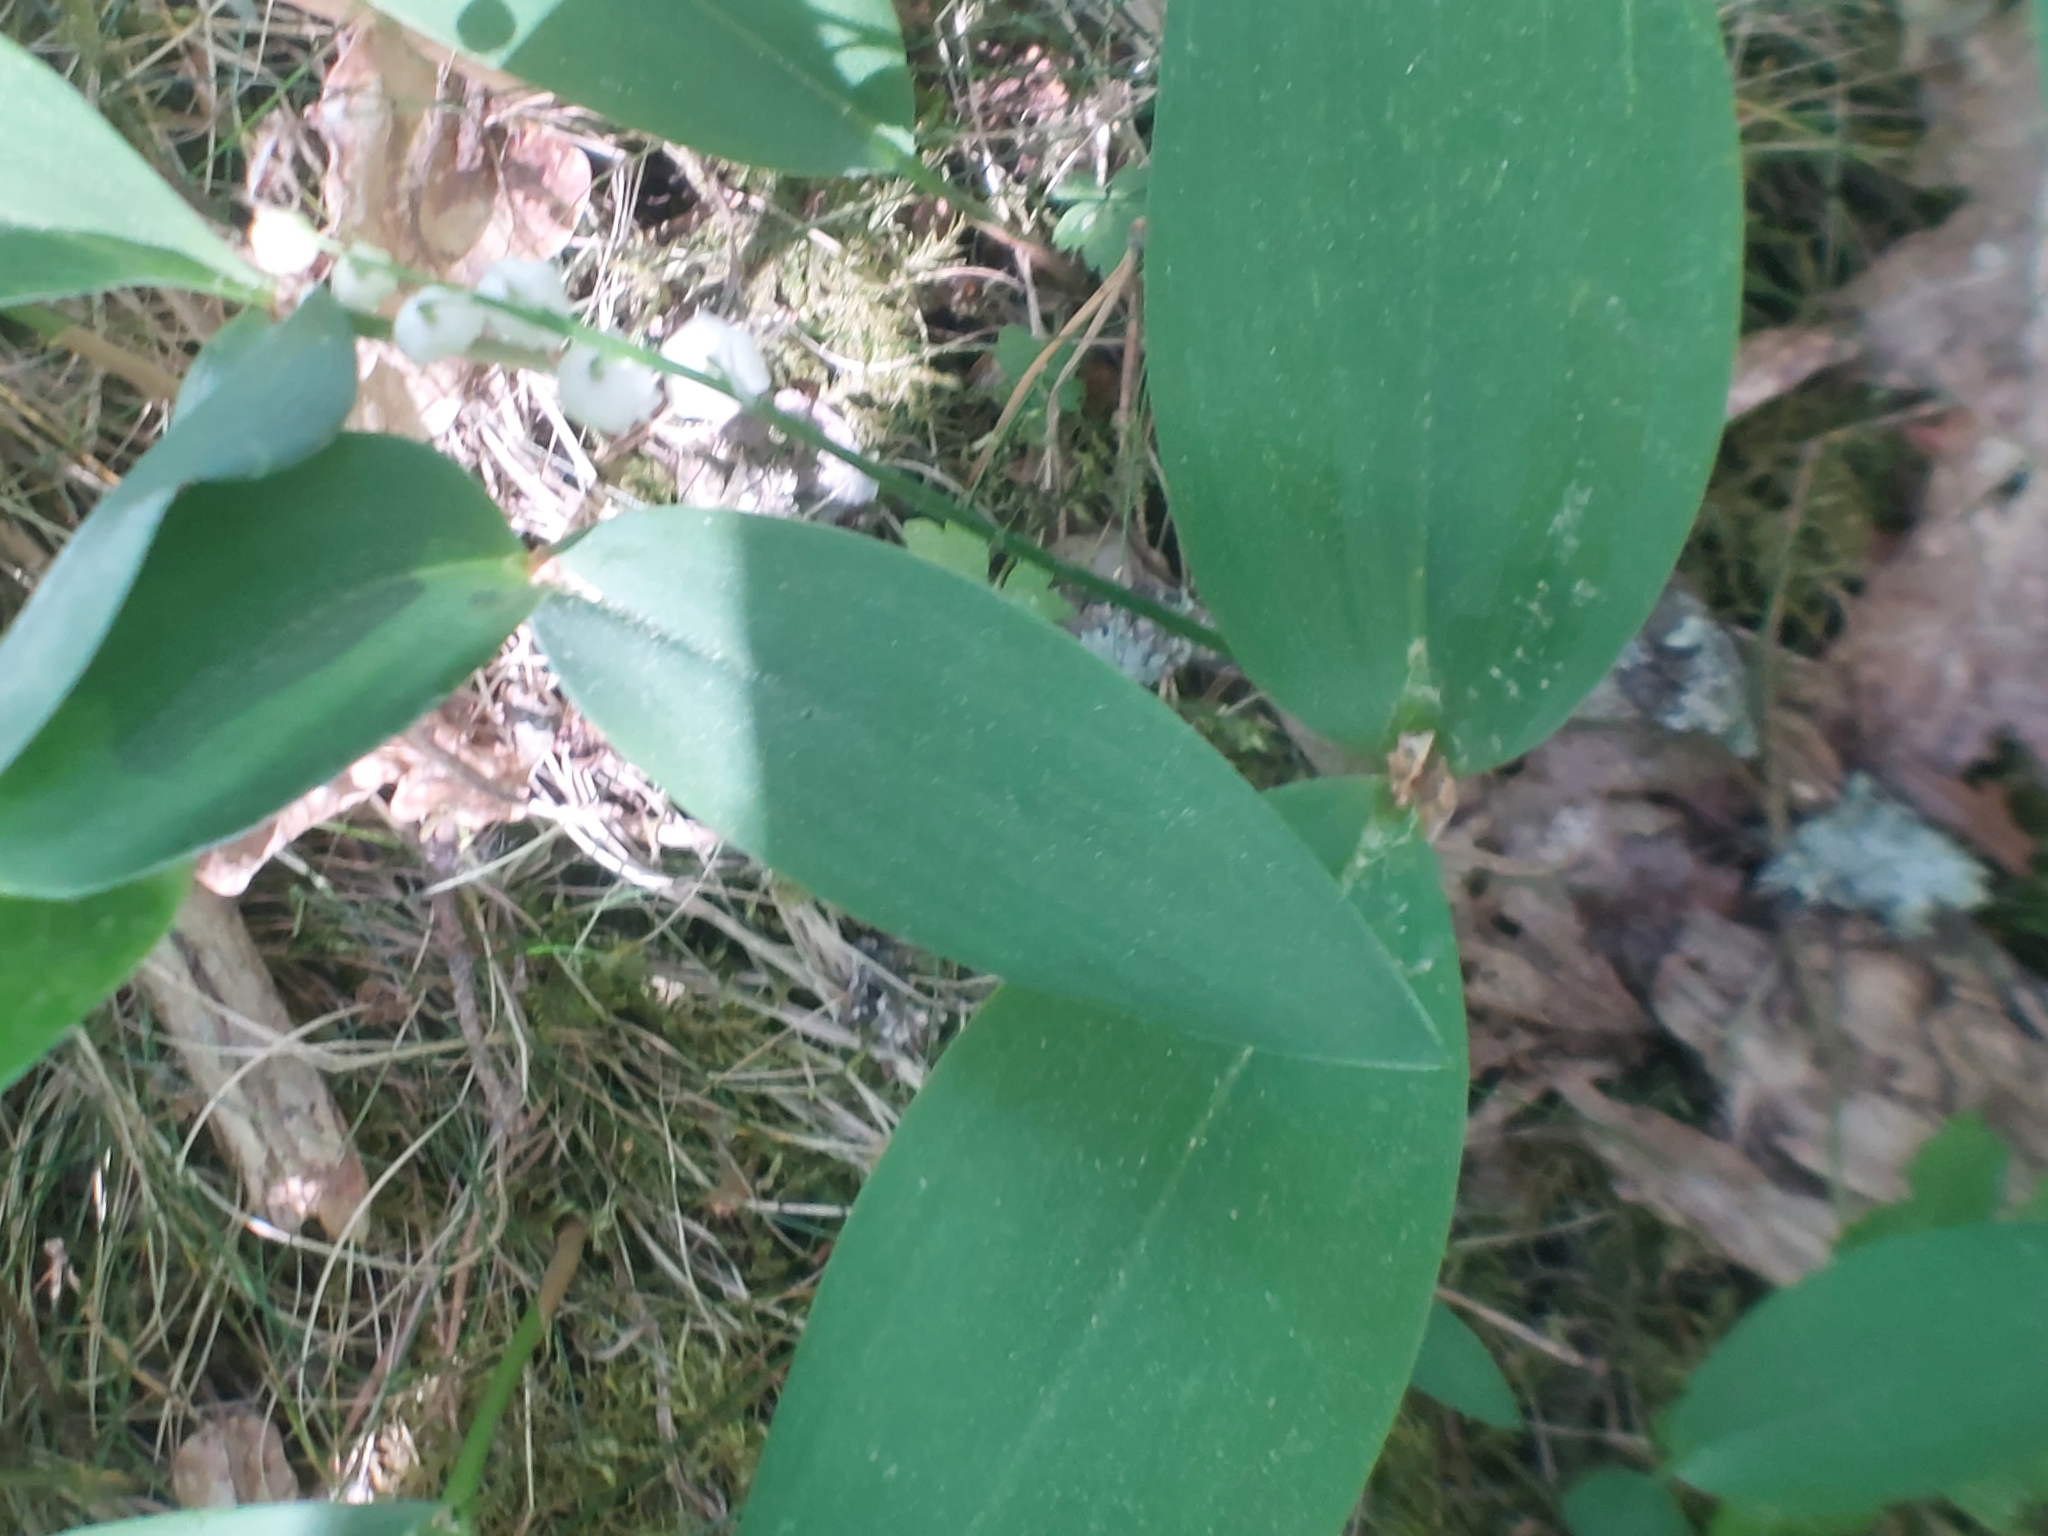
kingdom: Plantae
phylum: Tracheophyta
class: Liliopsida
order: Asparagales
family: Asparagaceae
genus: Convallaria
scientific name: Convallaria majalis
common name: Lily-of-the-valley
